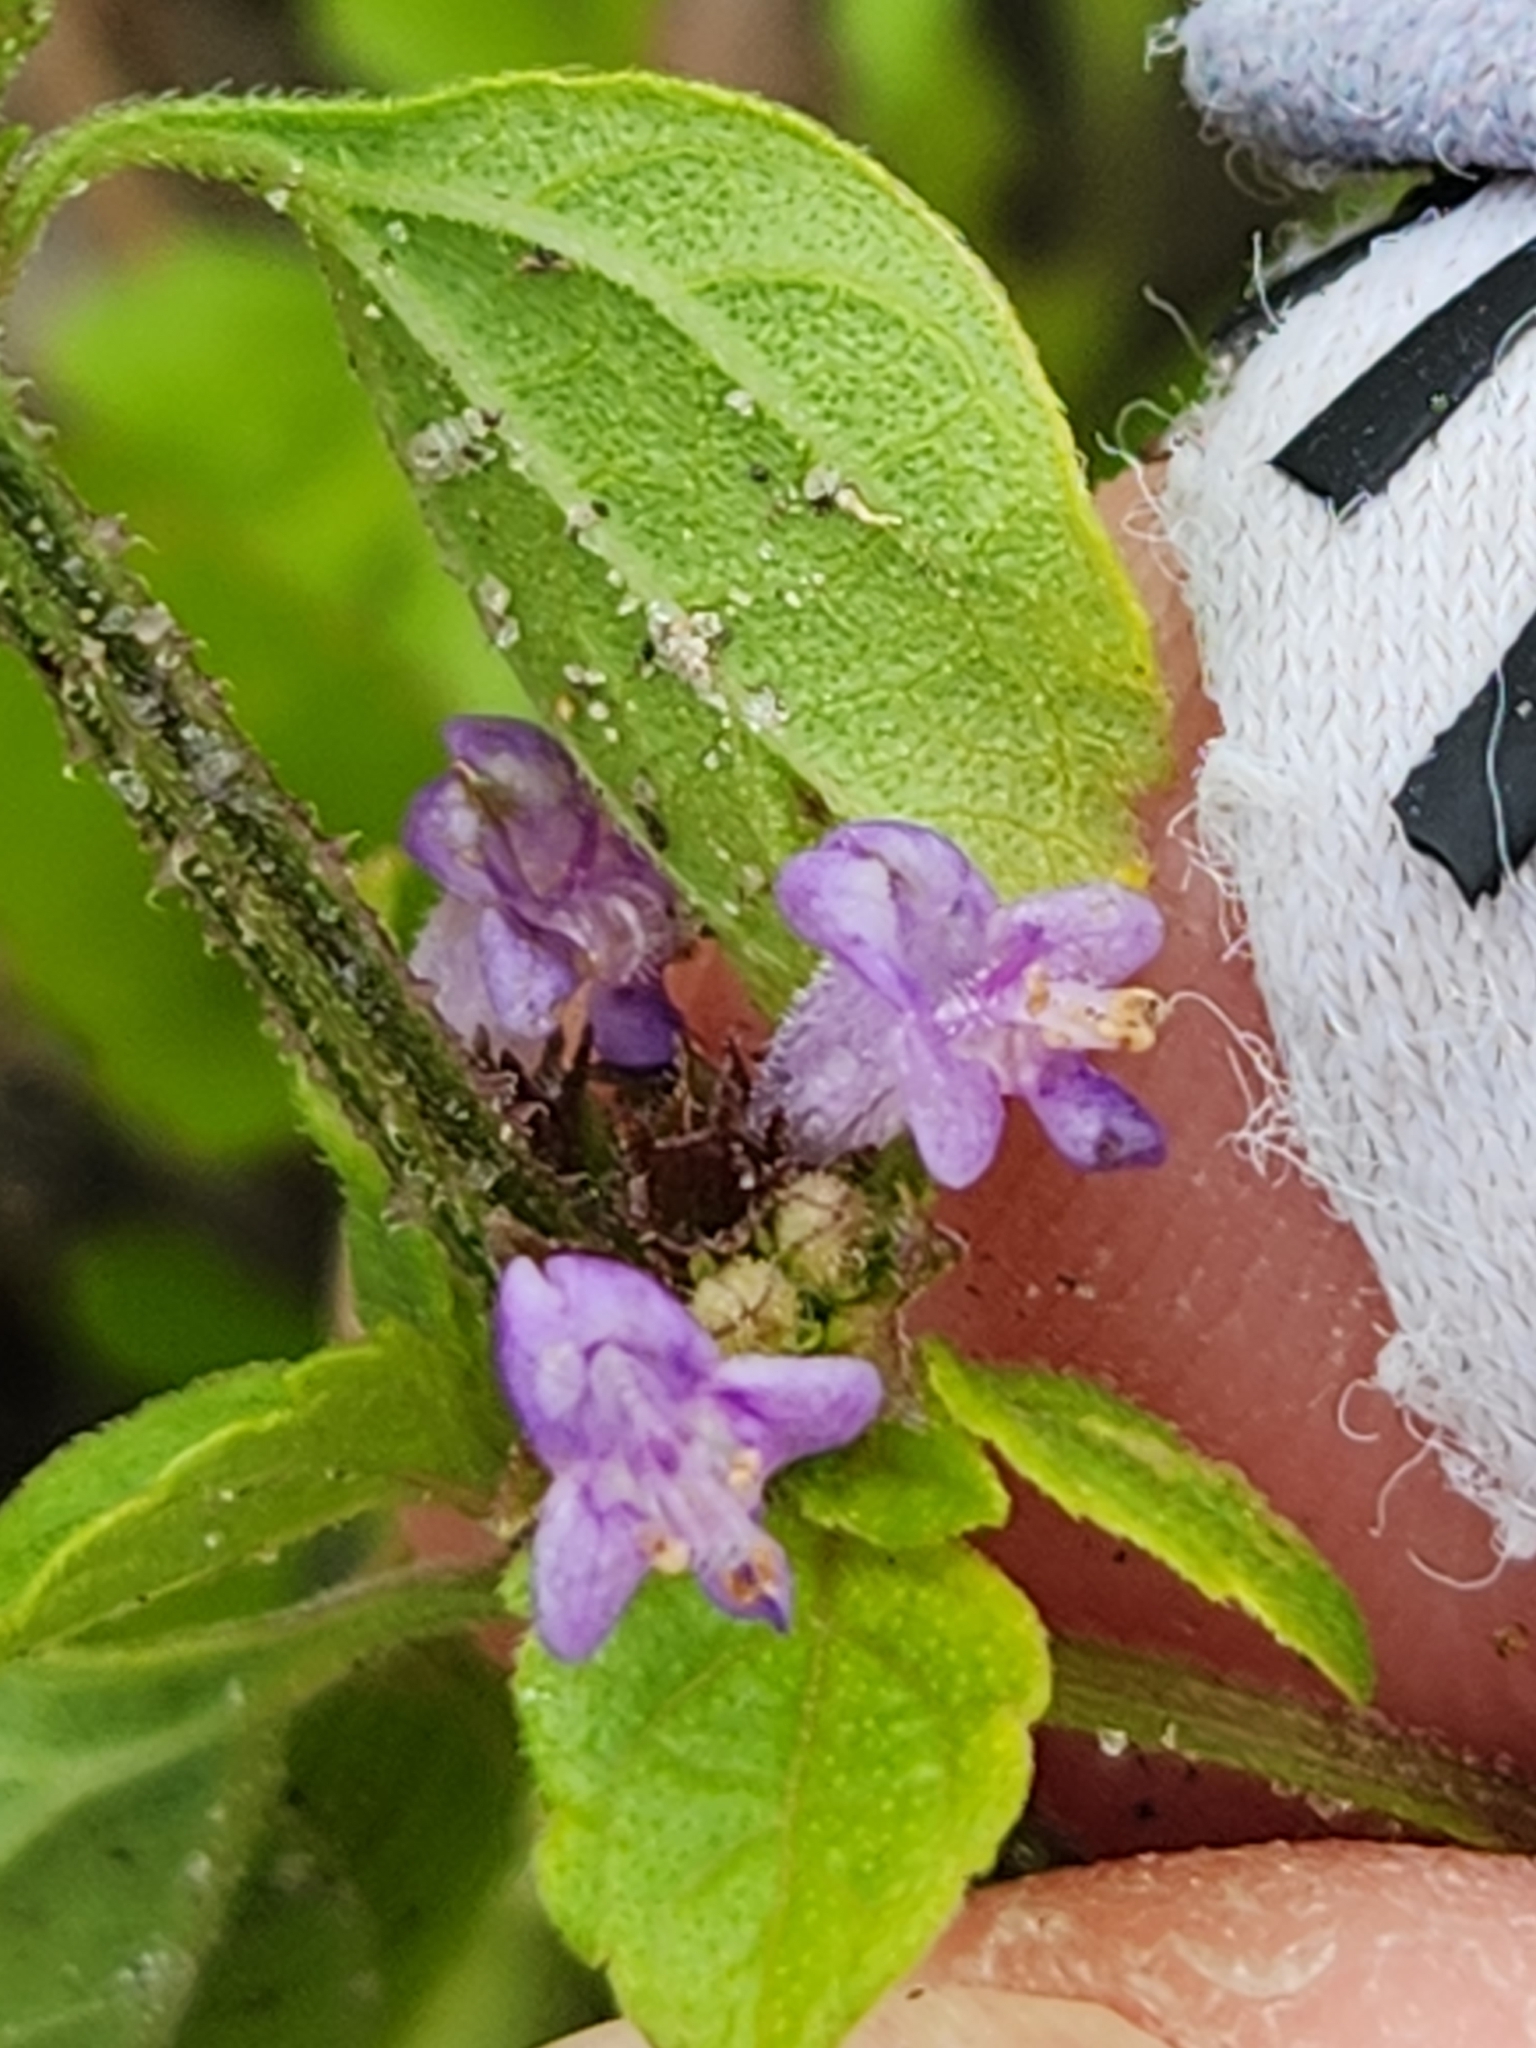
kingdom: Plantae
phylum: Tracheophyta
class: Magnoliopsida
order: Lamiales
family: Lamiaceae
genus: Cantinoa
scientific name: Cantinoa mutabilis
